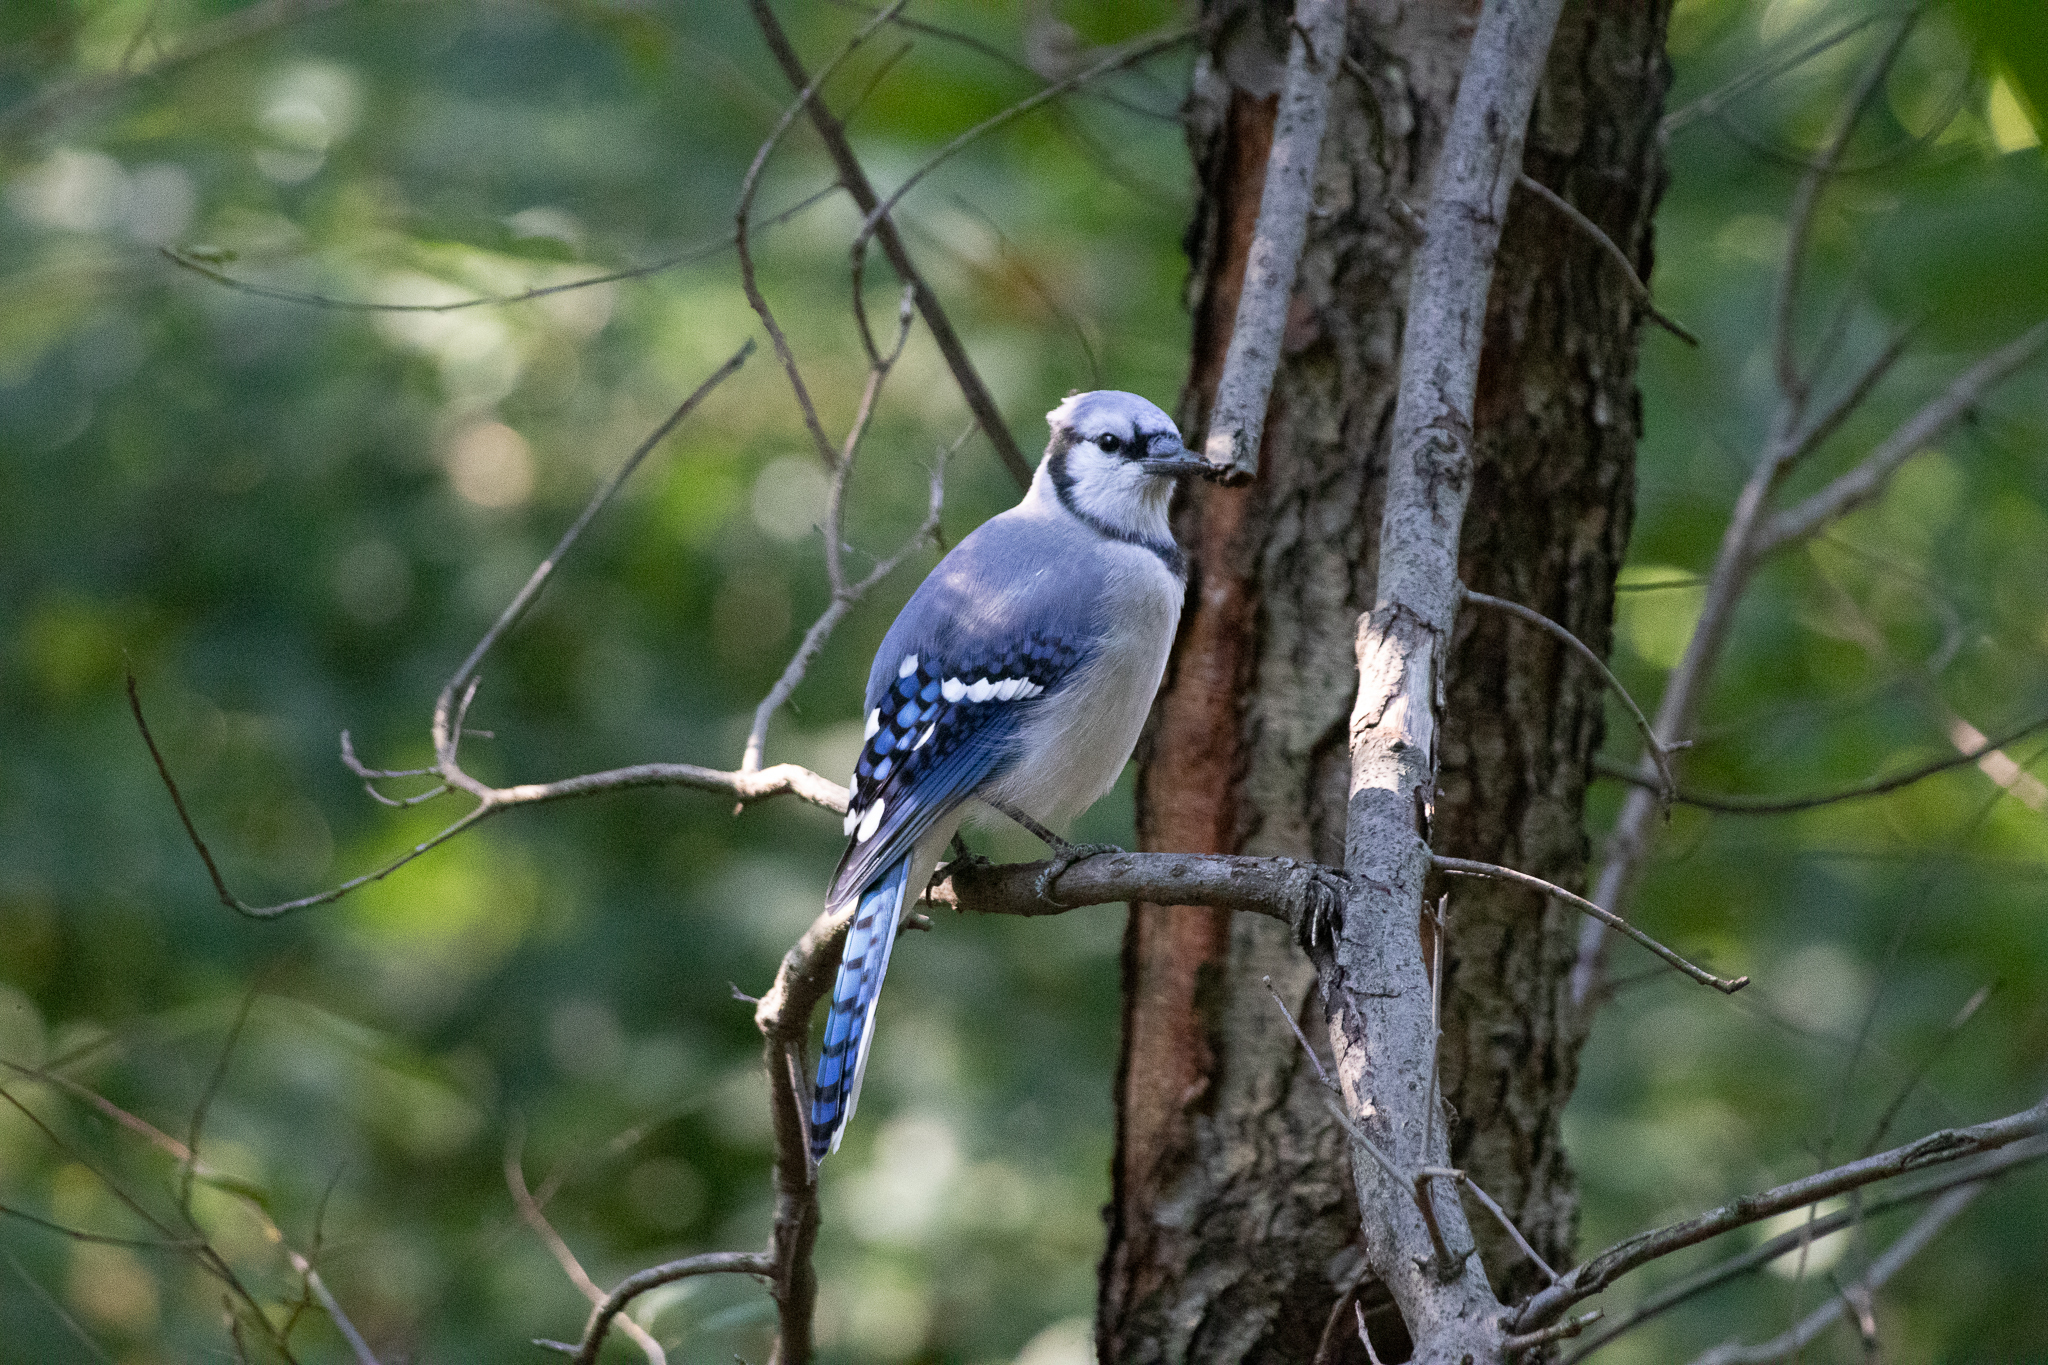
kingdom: Animalia
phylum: Chordata
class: Aves
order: Passeriformes
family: Corvidae
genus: Cyanocitta
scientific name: Cyanocitta cristata
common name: Blue jay
